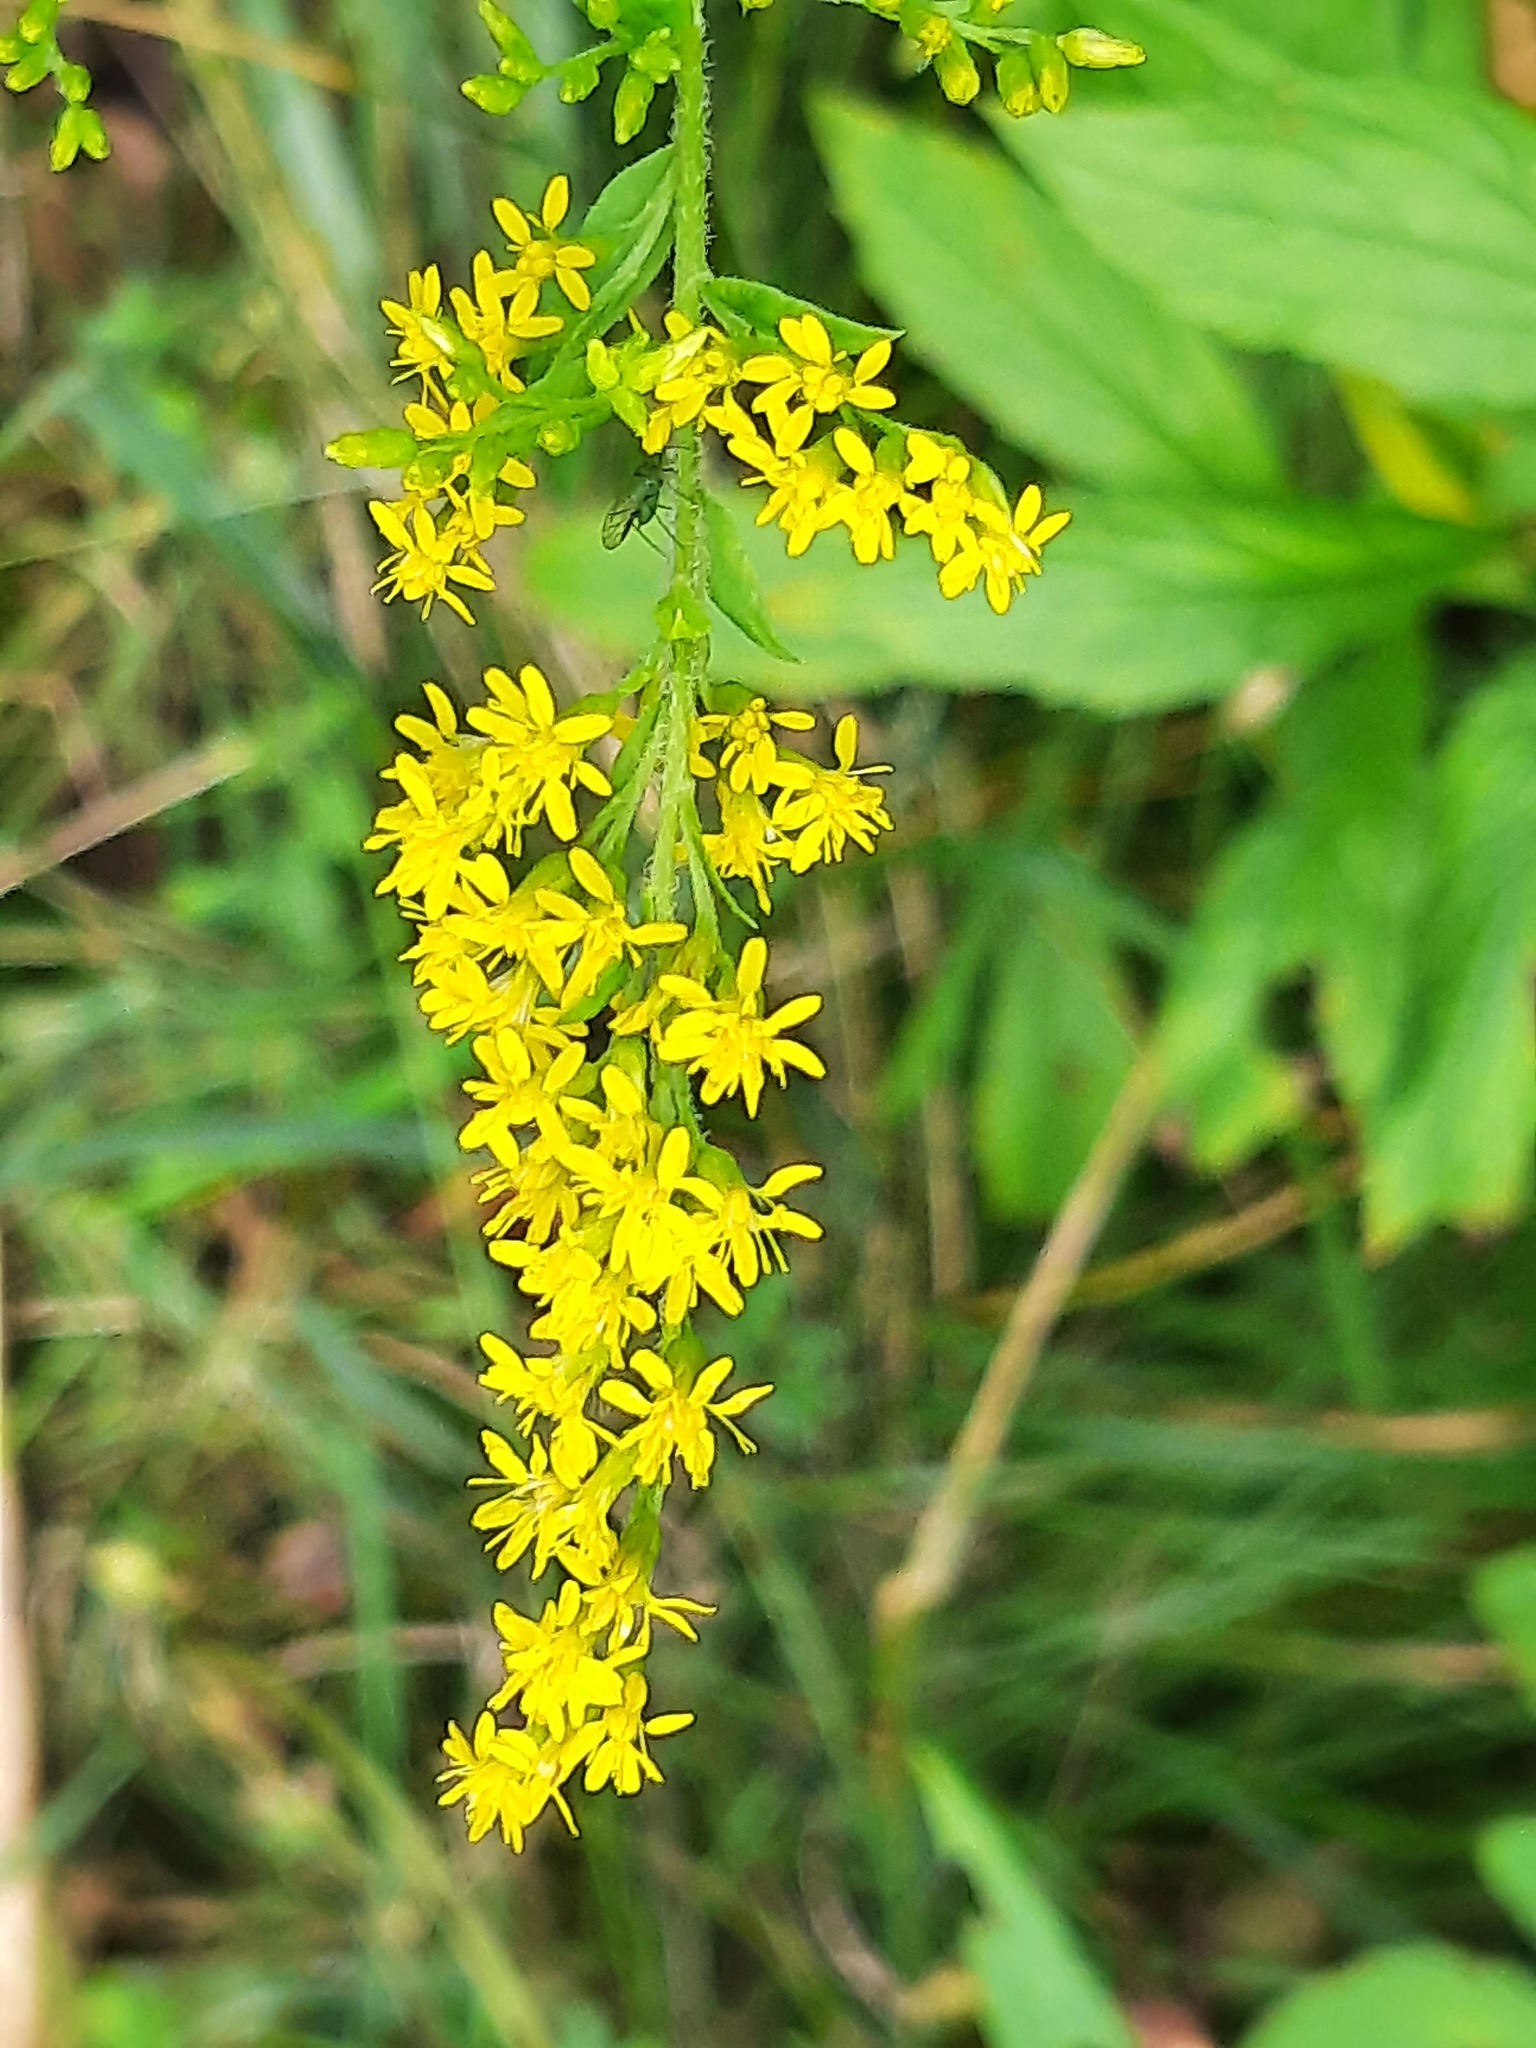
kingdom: Plantae
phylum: Tracheophyta
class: Magnoliopsida
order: Asterales
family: Asteraceae
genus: Solidago
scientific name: Solidago rugosa
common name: Rough-stemmed goldenrod
